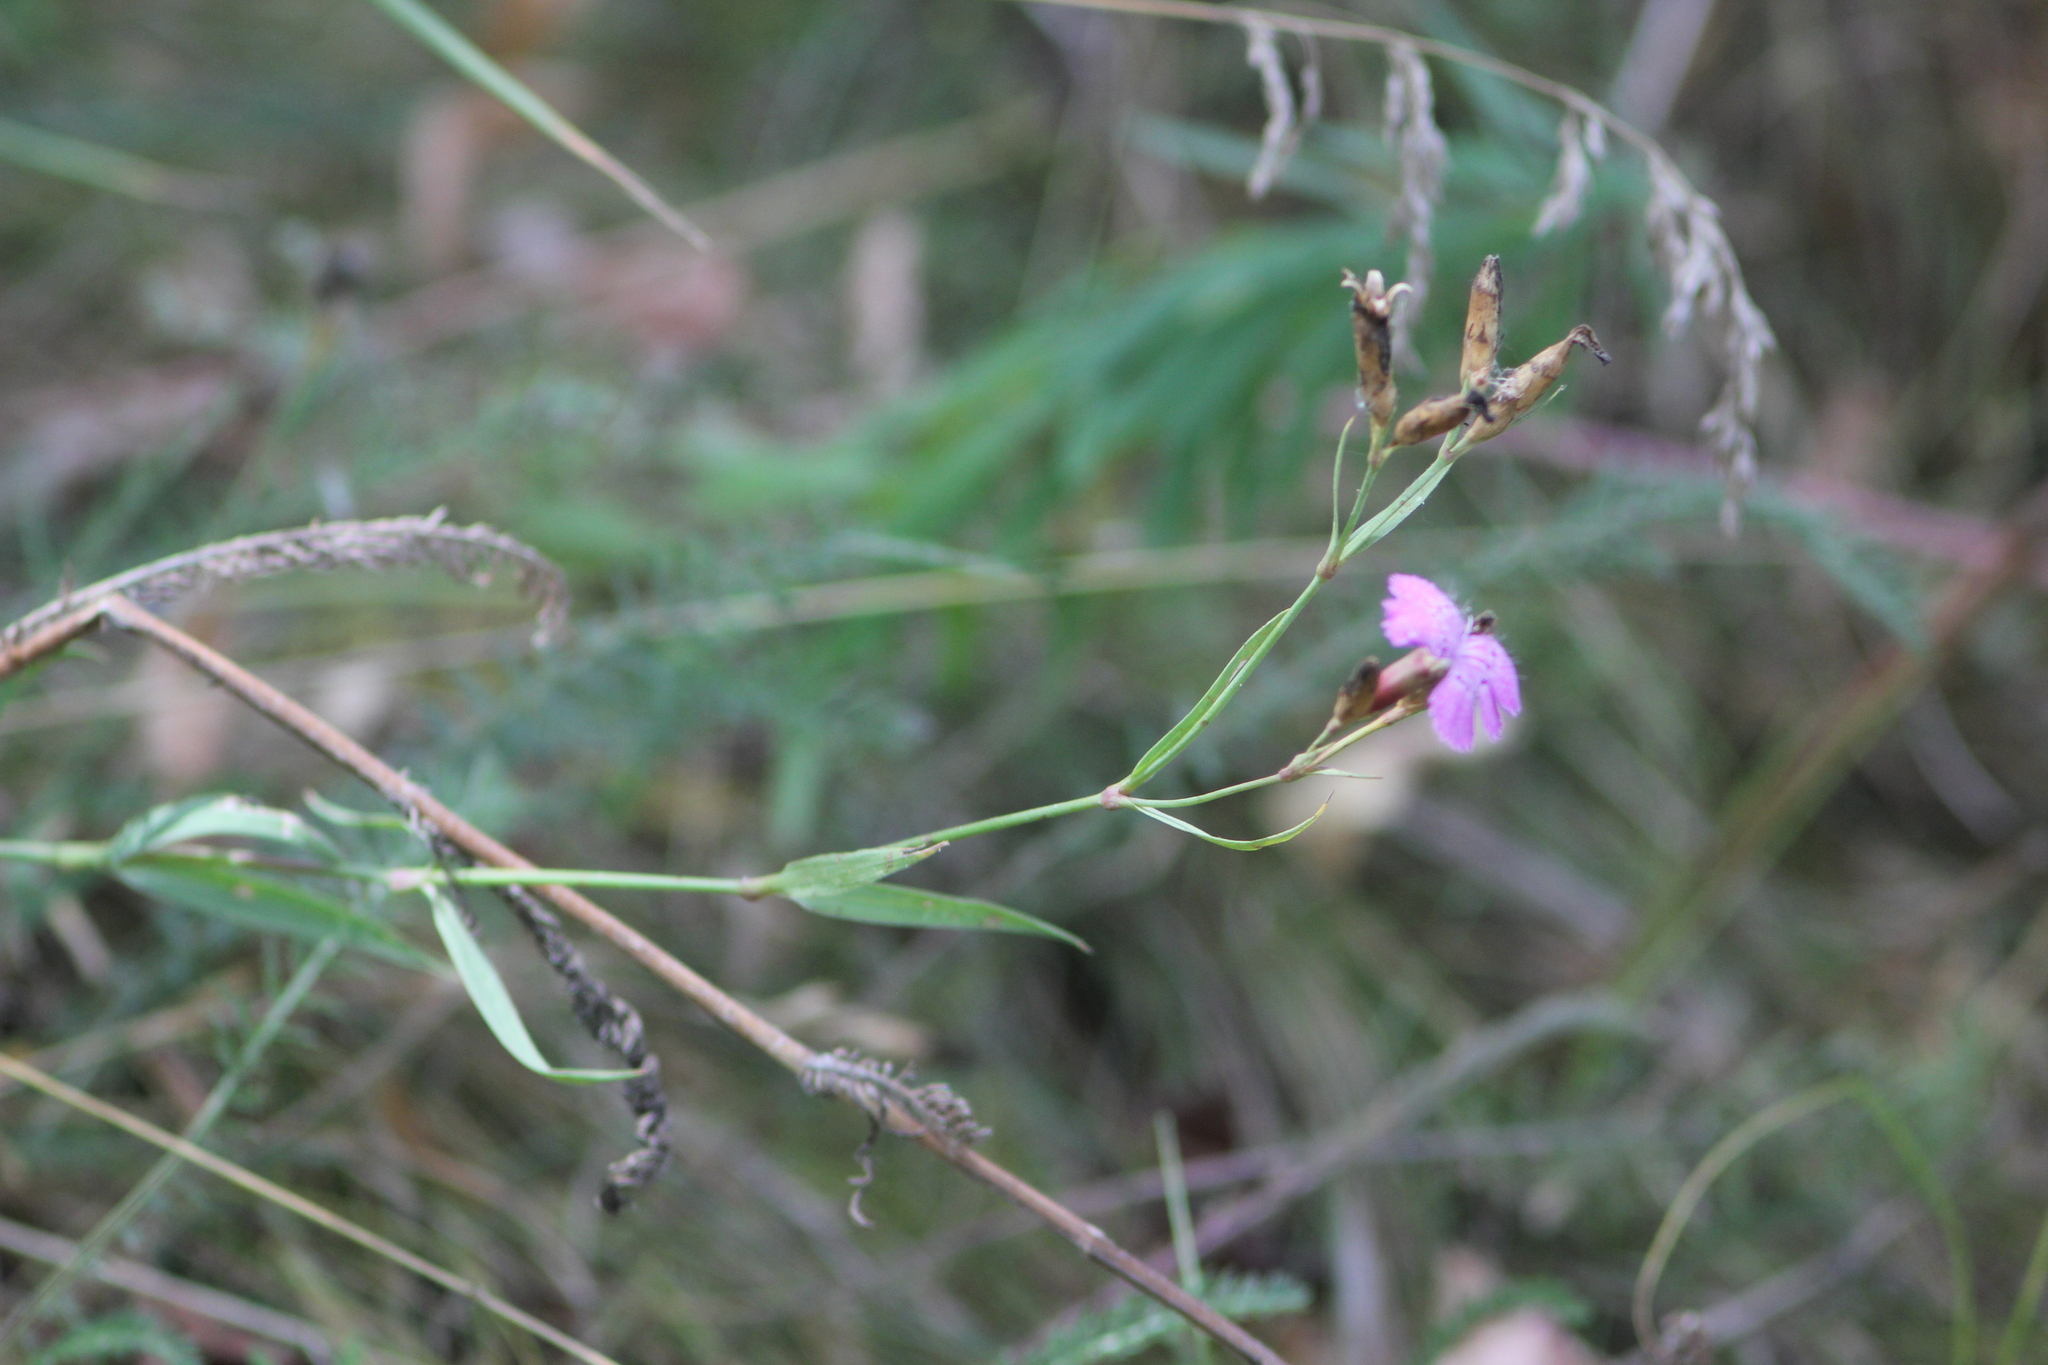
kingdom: Plantae
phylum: Tracheophyta
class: Magnoliopsida
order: Caryophyllales
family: Caryophyllaceae
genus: Dianthus
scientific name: Dianthus chinensis
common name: Rainbow pink
